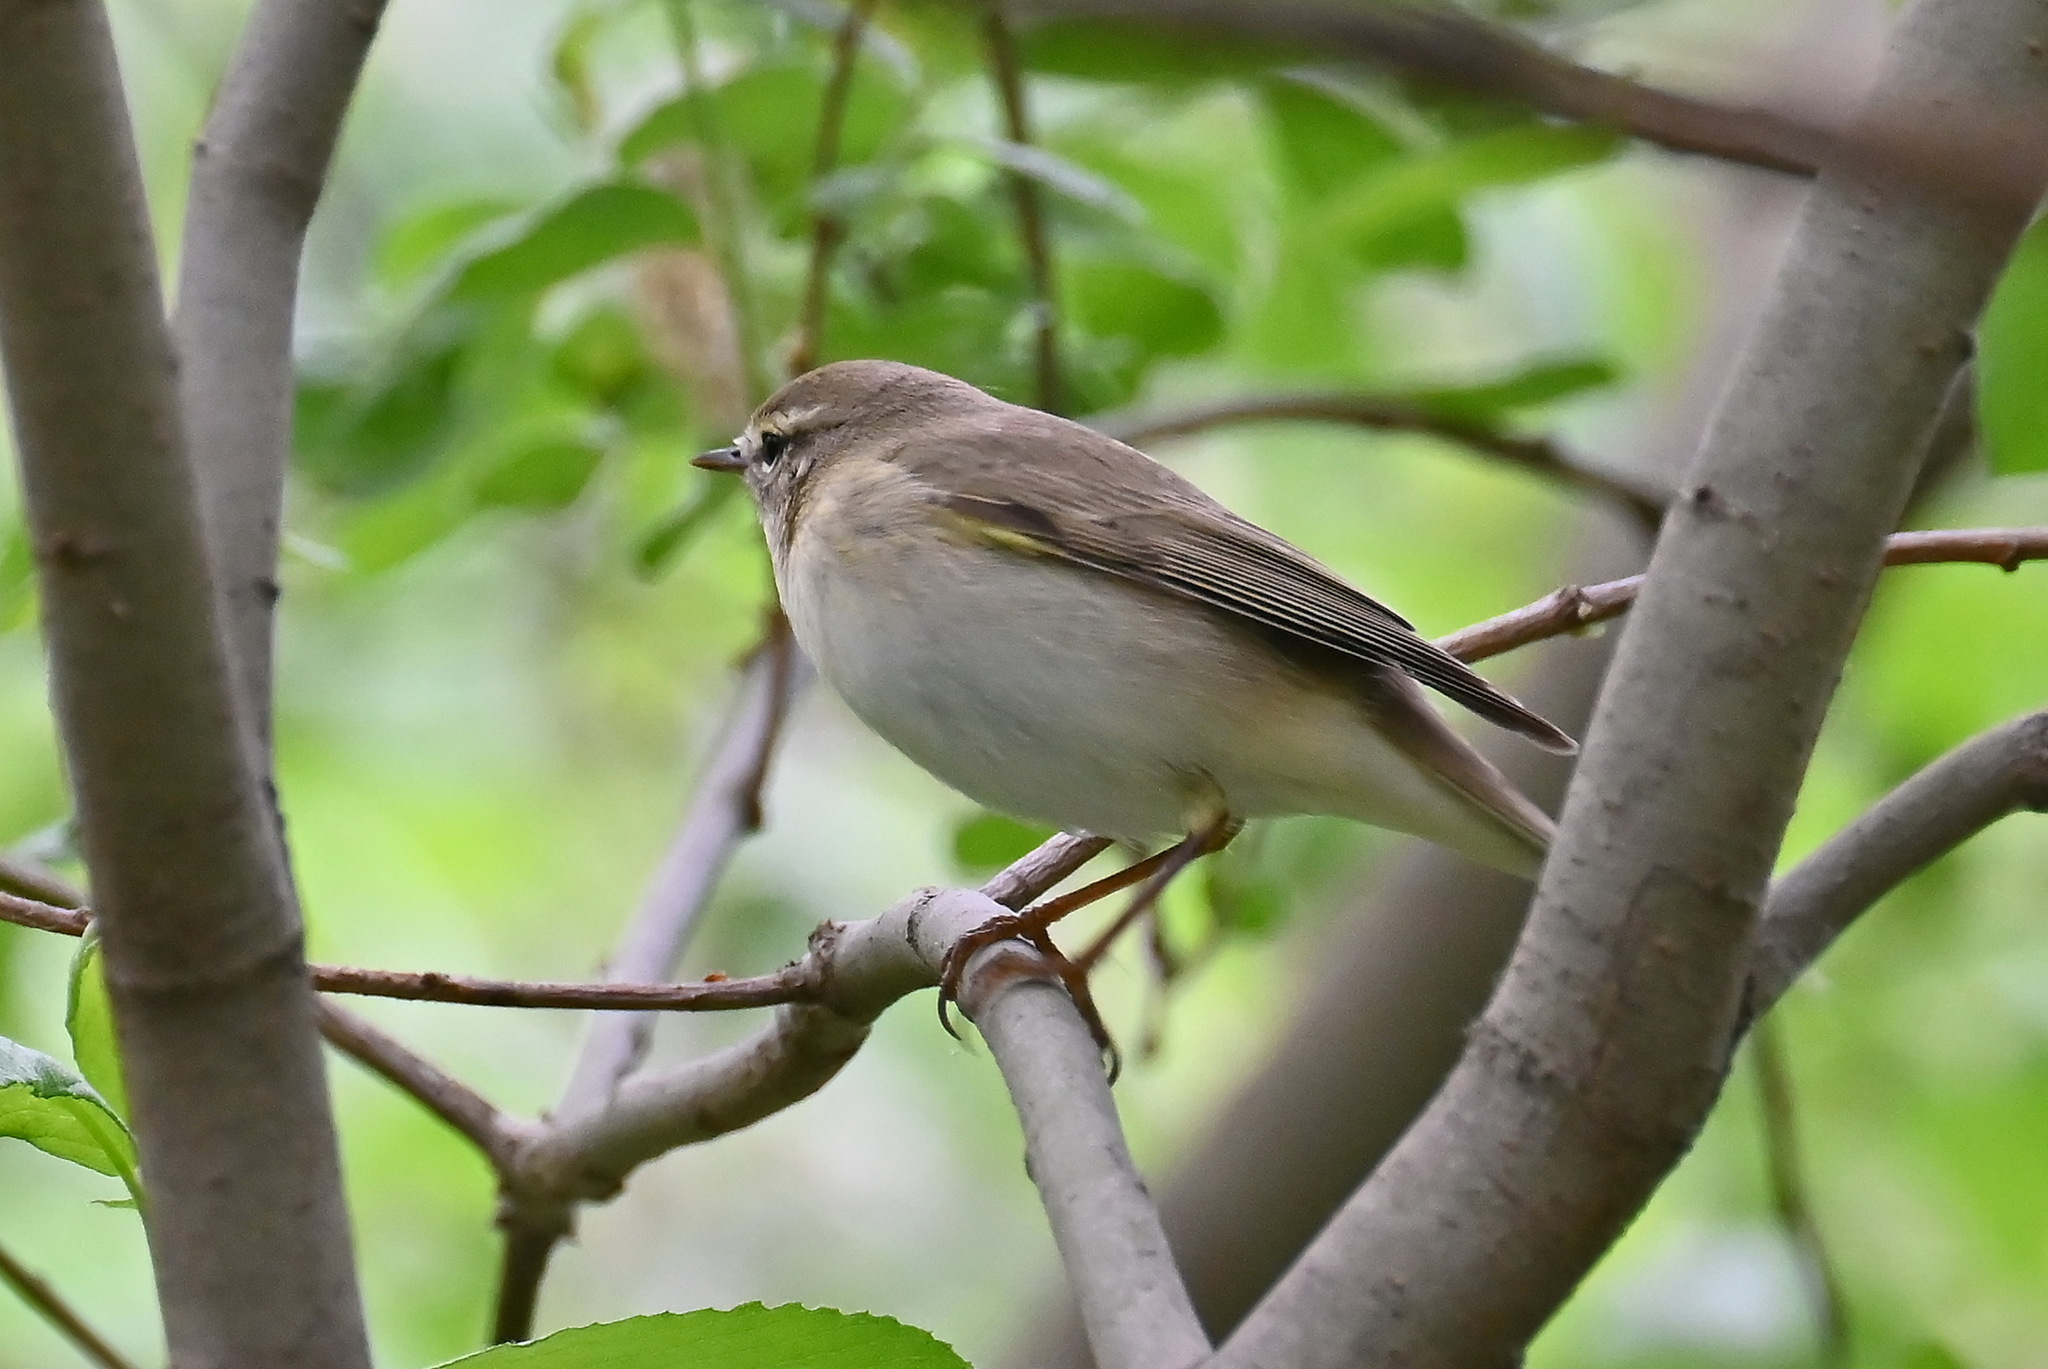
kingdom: Animalia
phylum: Chordata
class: Aves
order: Passeriformes
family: Phylloscopidae
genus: Phylloscopus
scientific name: Phylloscopus trochilus
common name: Willow warbler
